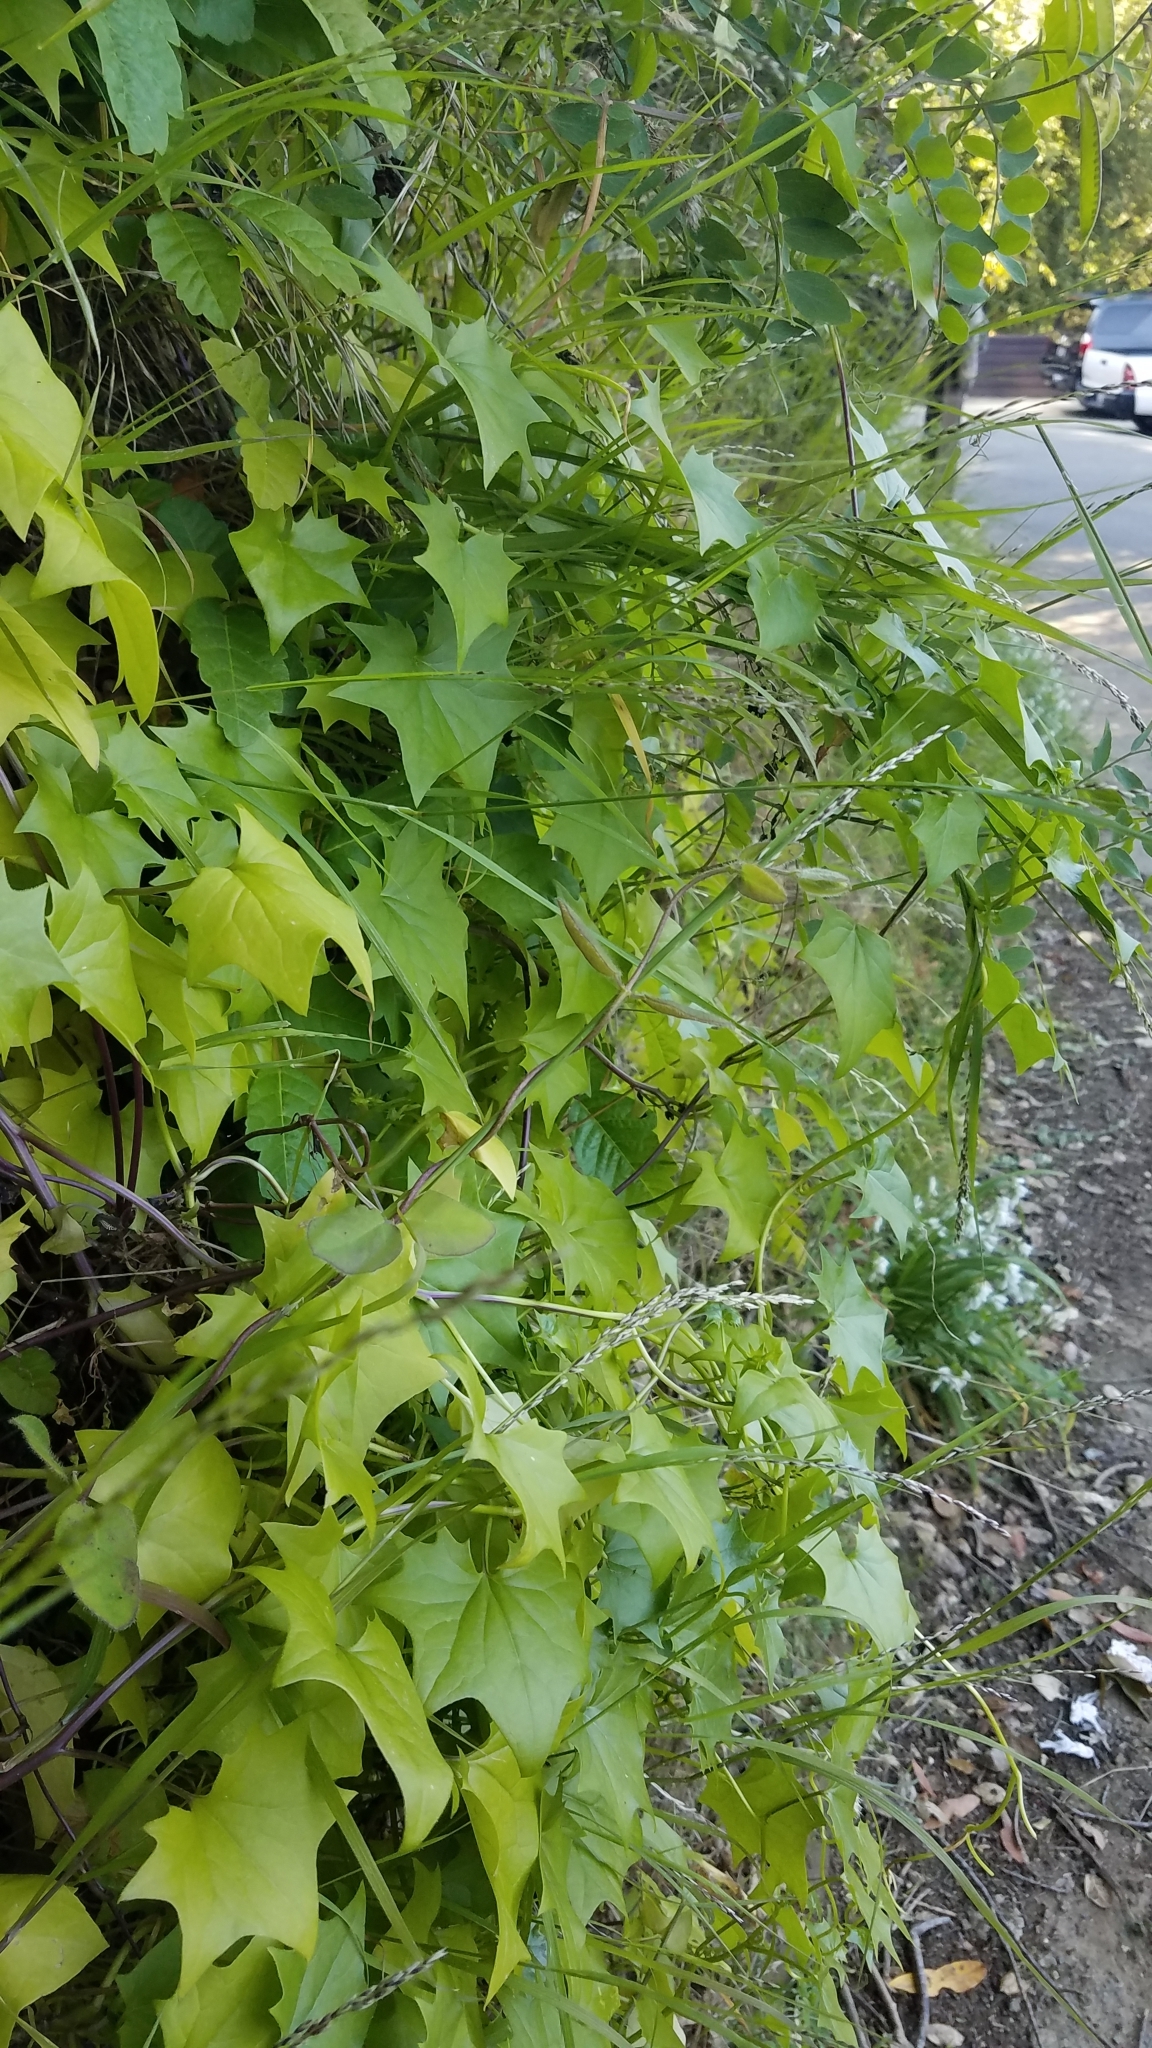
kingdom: Plantae
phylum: Tracheophyta
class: Magnoliopsida
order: Asterales
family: Asteraceae
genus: Delairea
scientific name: Delairea odorata
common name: Cape-ivy
